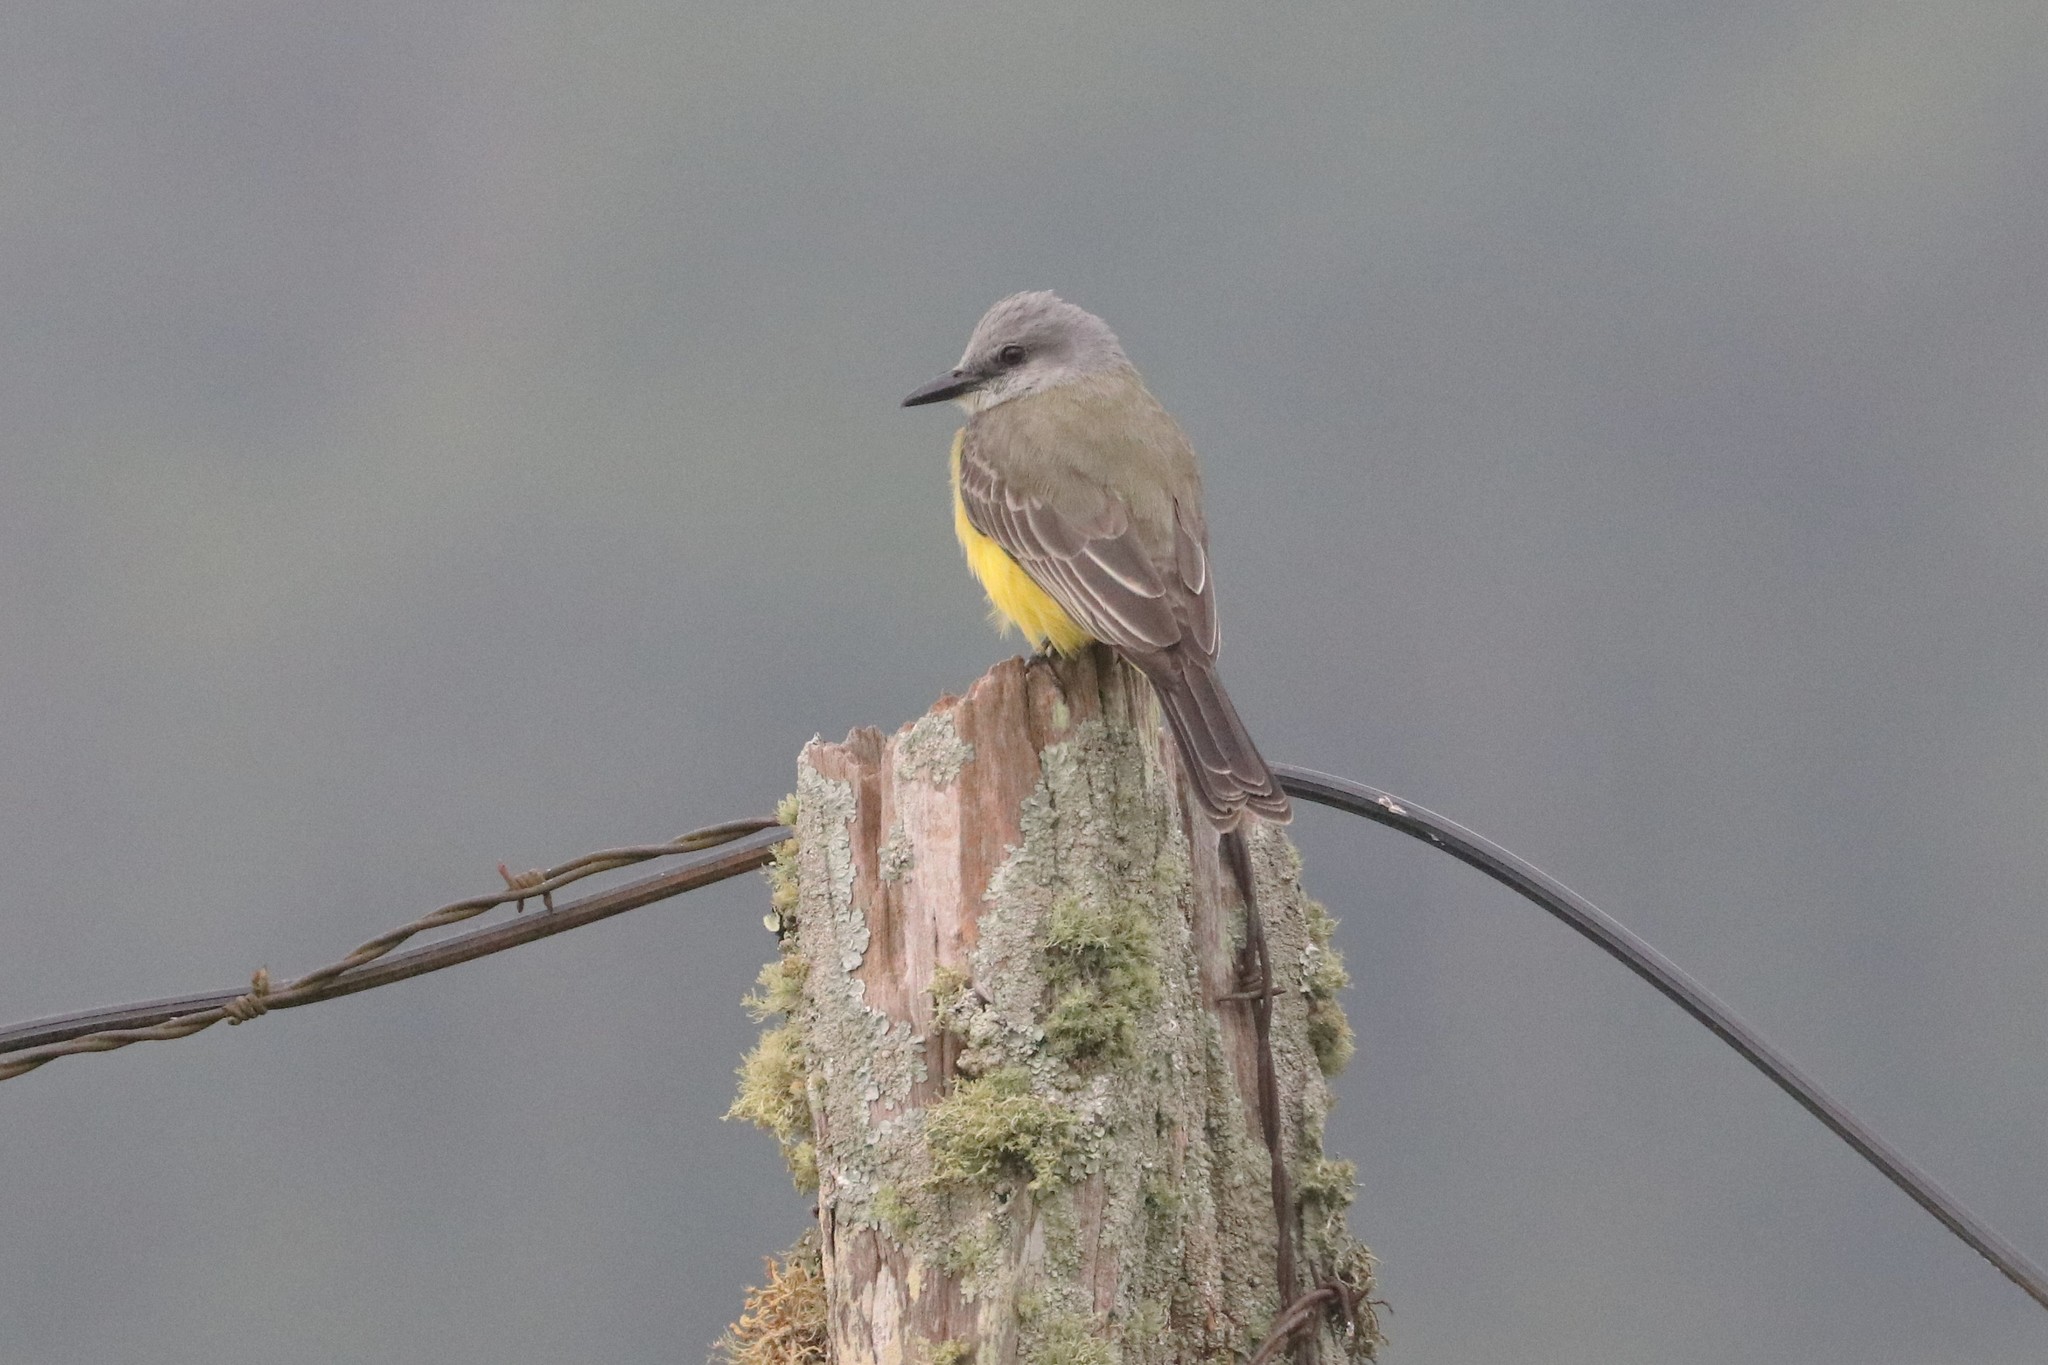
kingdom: Animalia
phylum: Chordata
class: Aves
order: Passeriformes
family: Tyrannidae
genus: Tyrannus
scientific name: Tyrannus melancholicus
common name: Tropical kingbird
